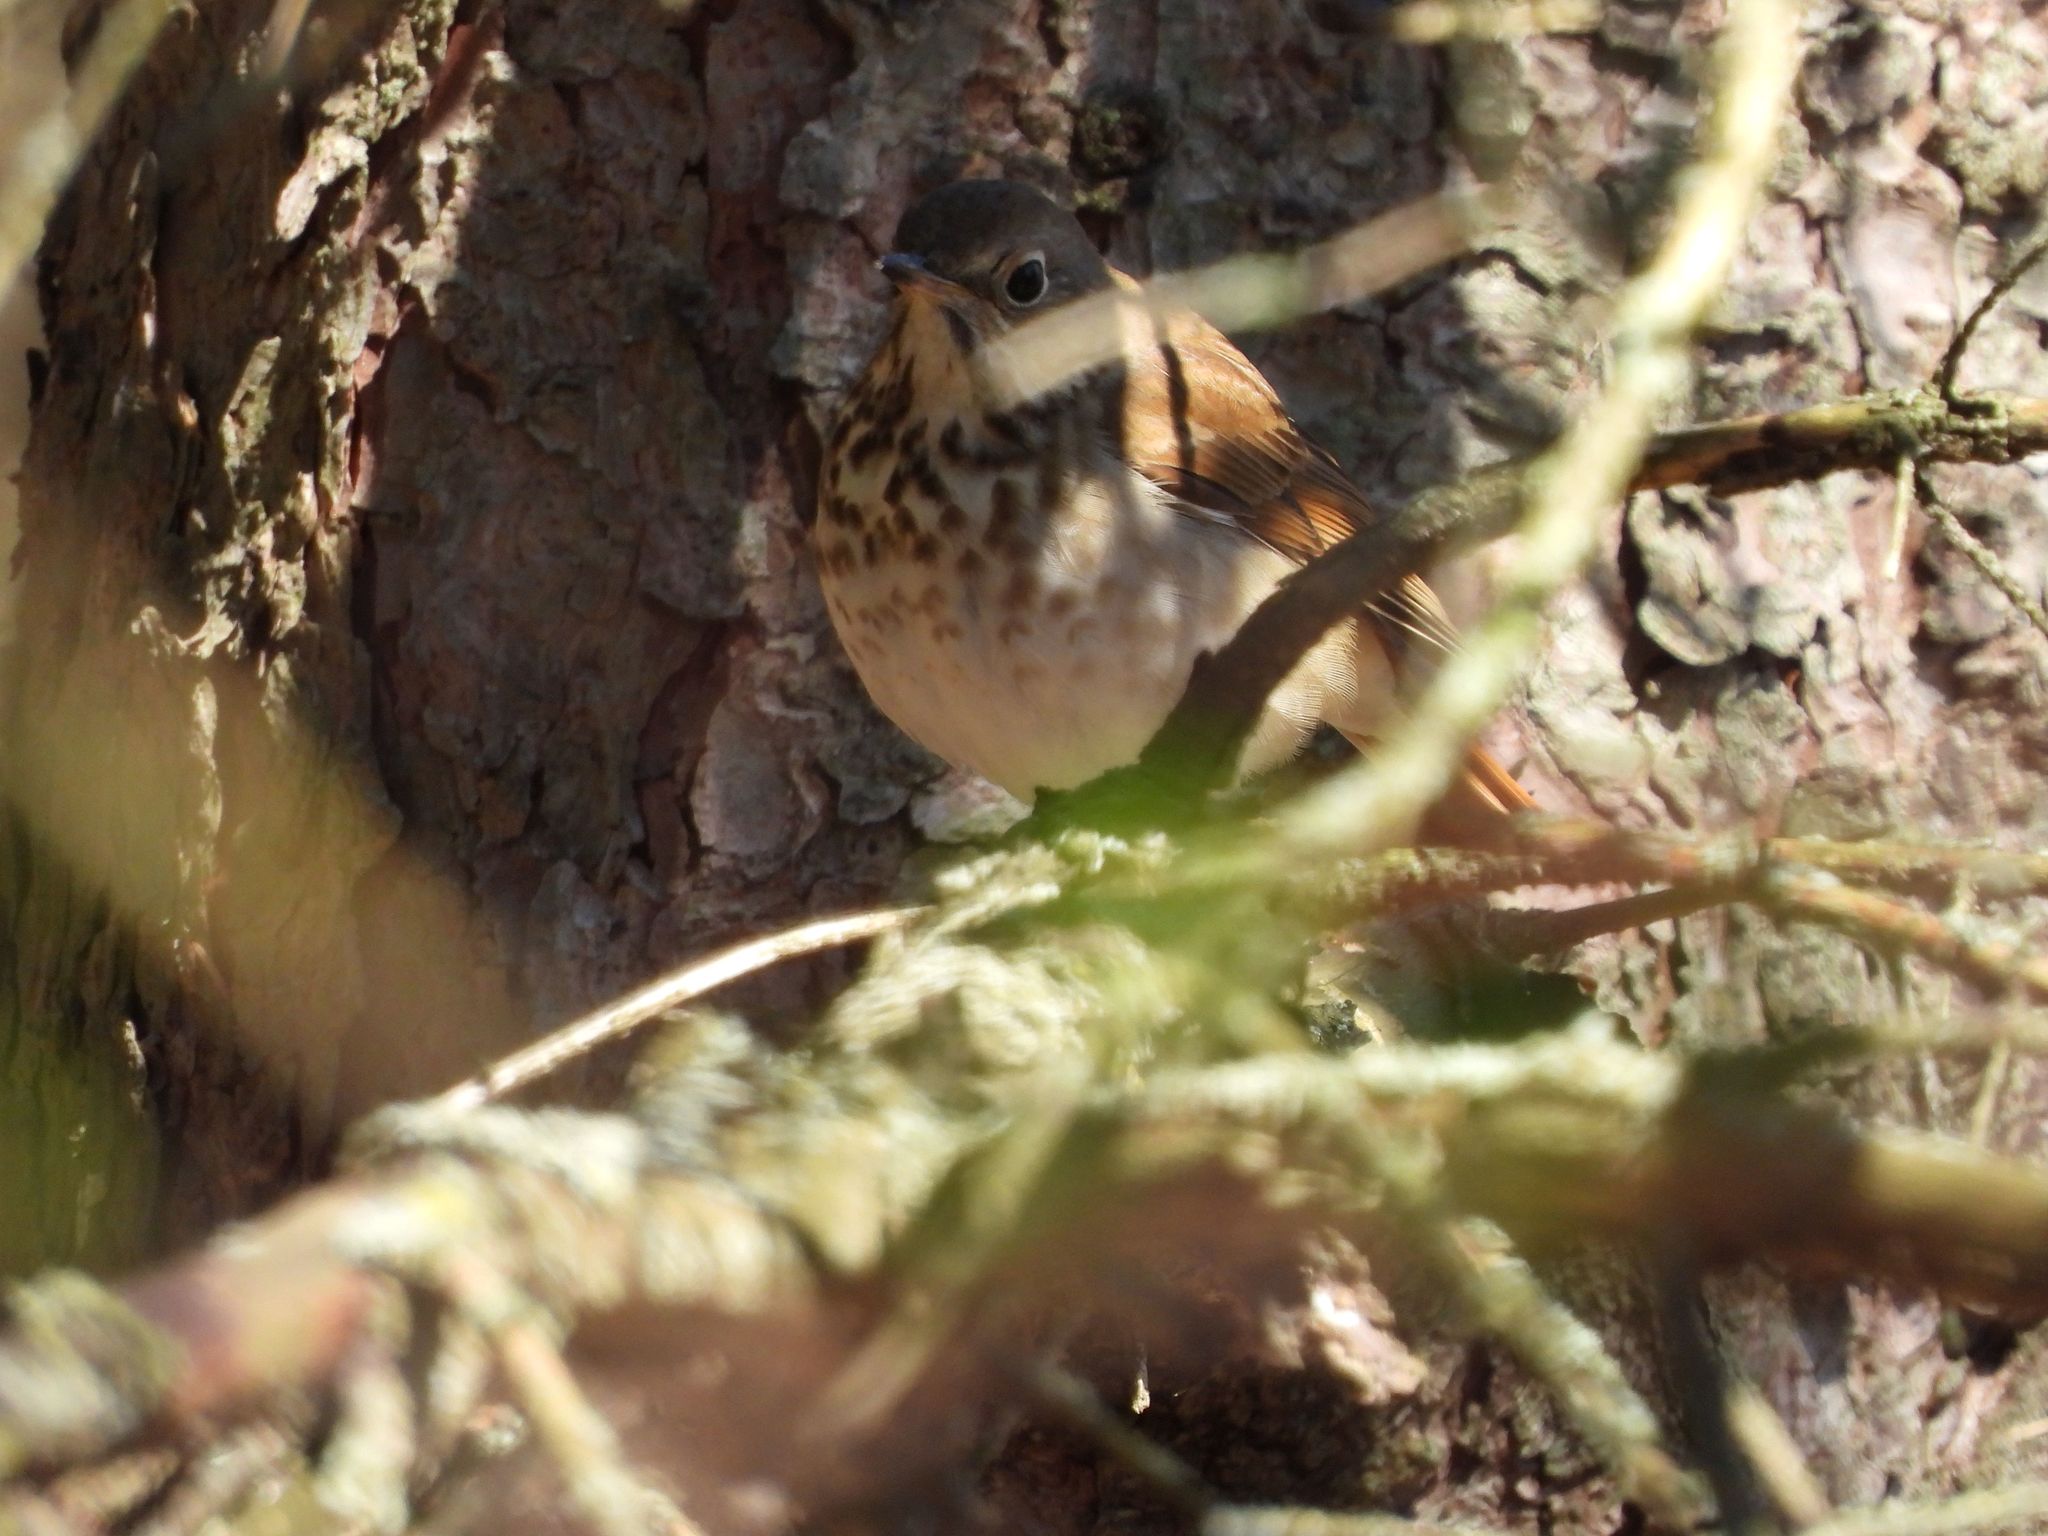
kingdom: Animalia
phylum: Chordata
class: Aves
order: Passeriformes
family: Turdidae
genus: Catharus
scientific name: Catharus guttatus
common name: Hermit thrush
